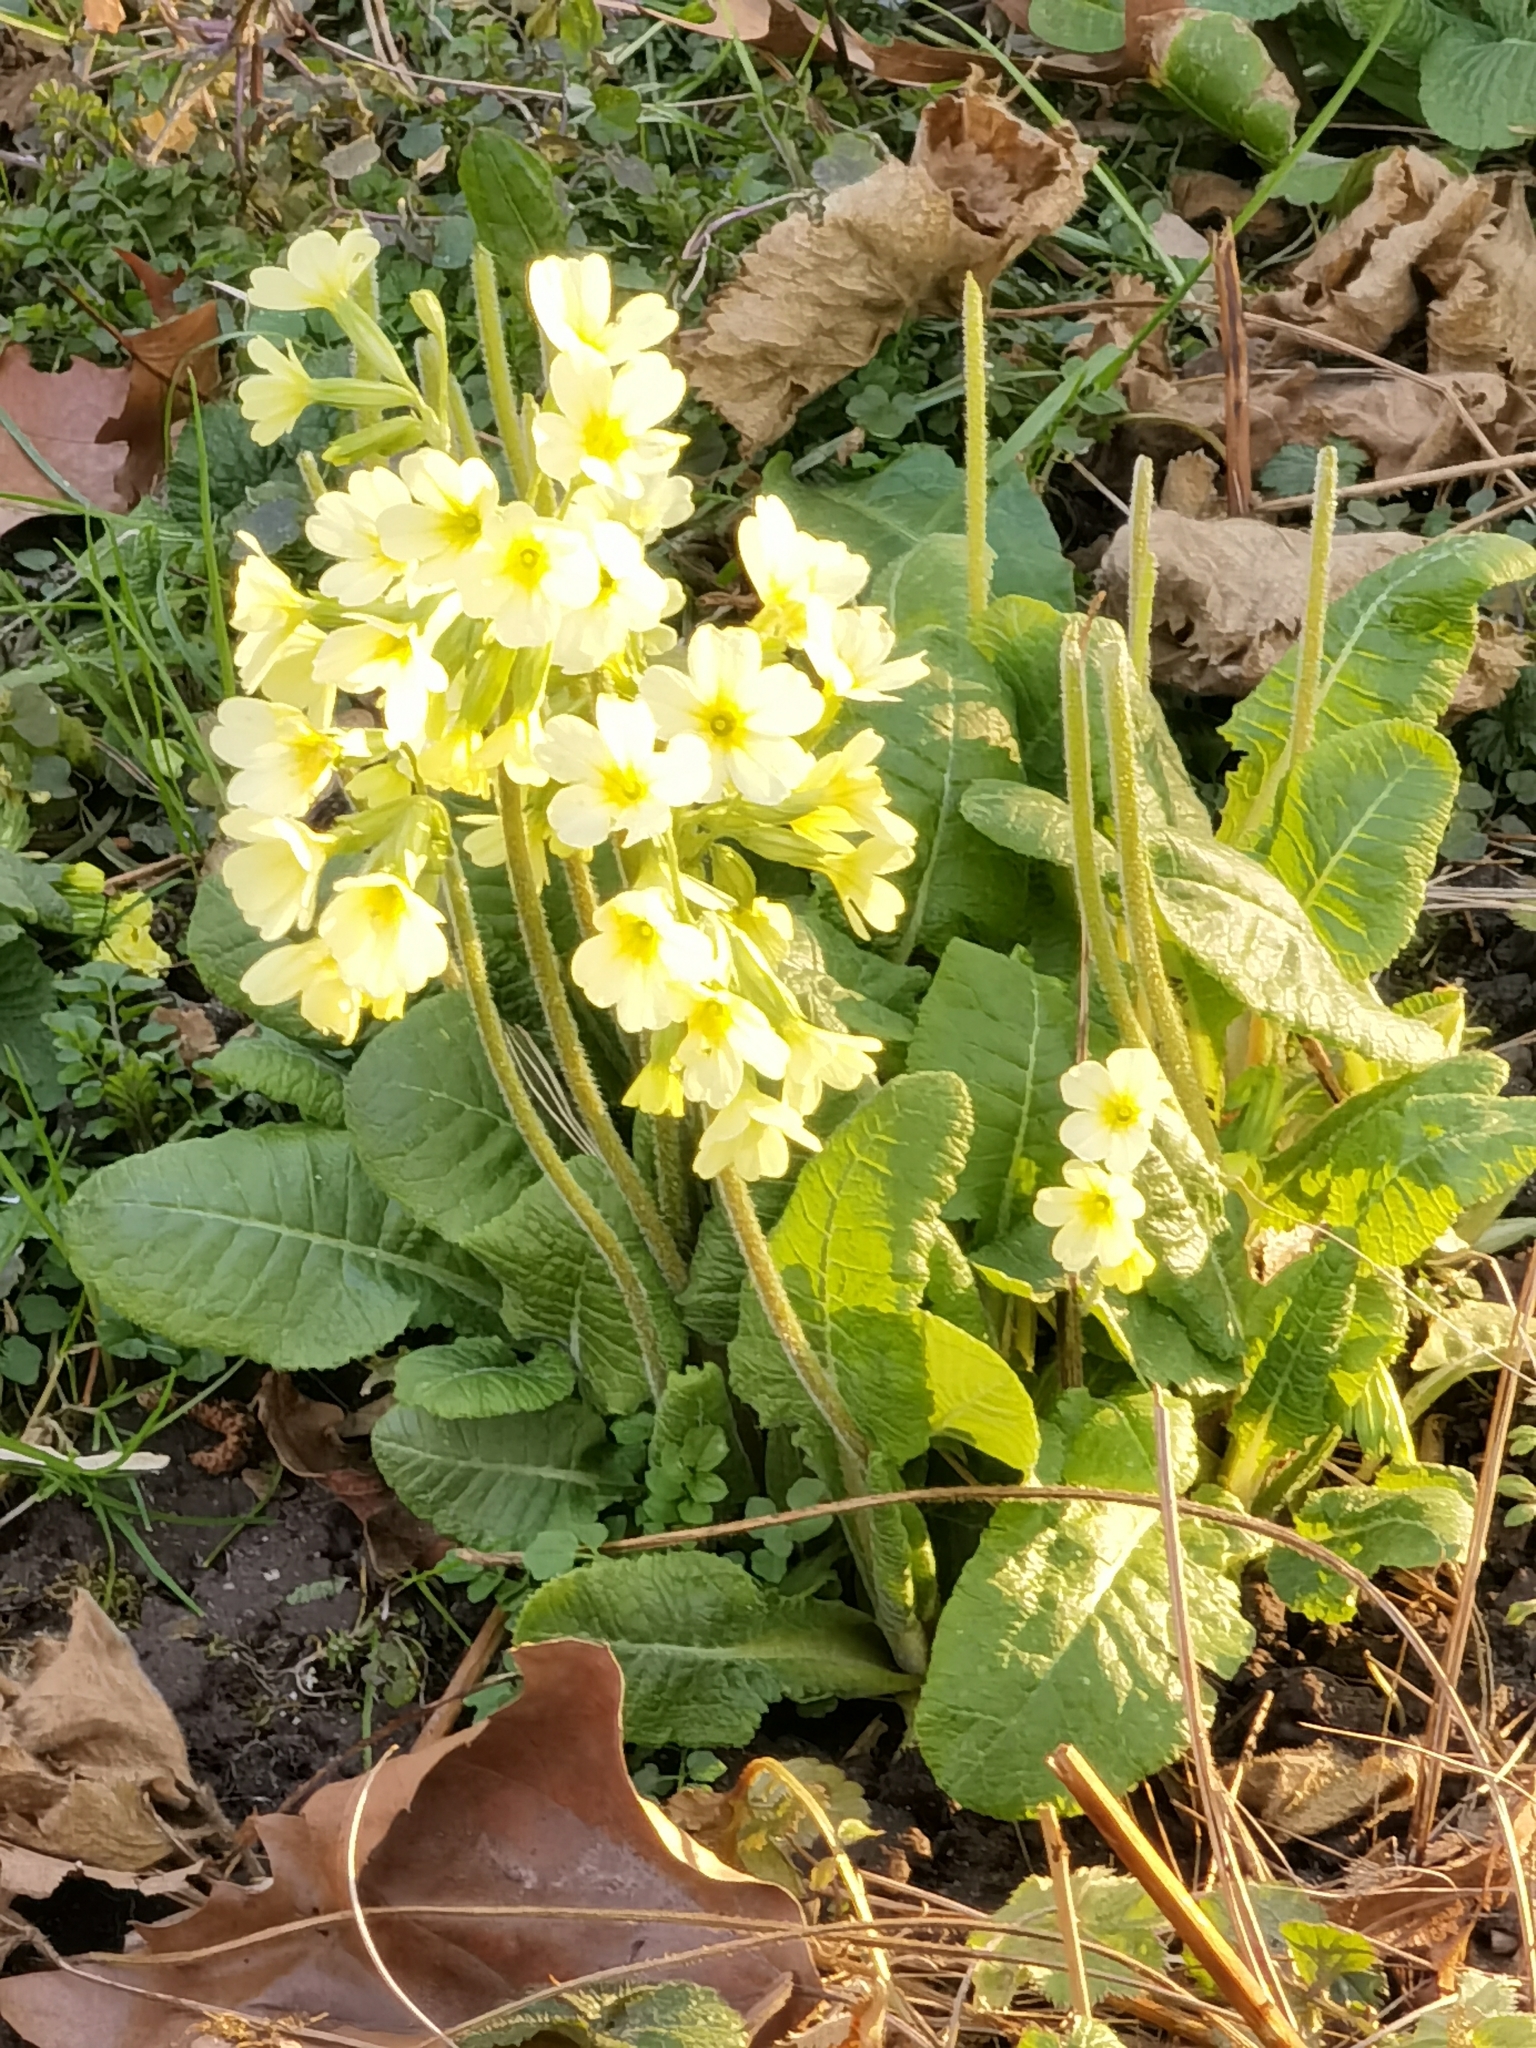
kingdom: Plantae
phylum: Tracheophyta
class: Magnoliopsida
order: Ericales
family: Primulaceae
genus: Primula
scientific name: Primula elatior
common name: Oxlip
